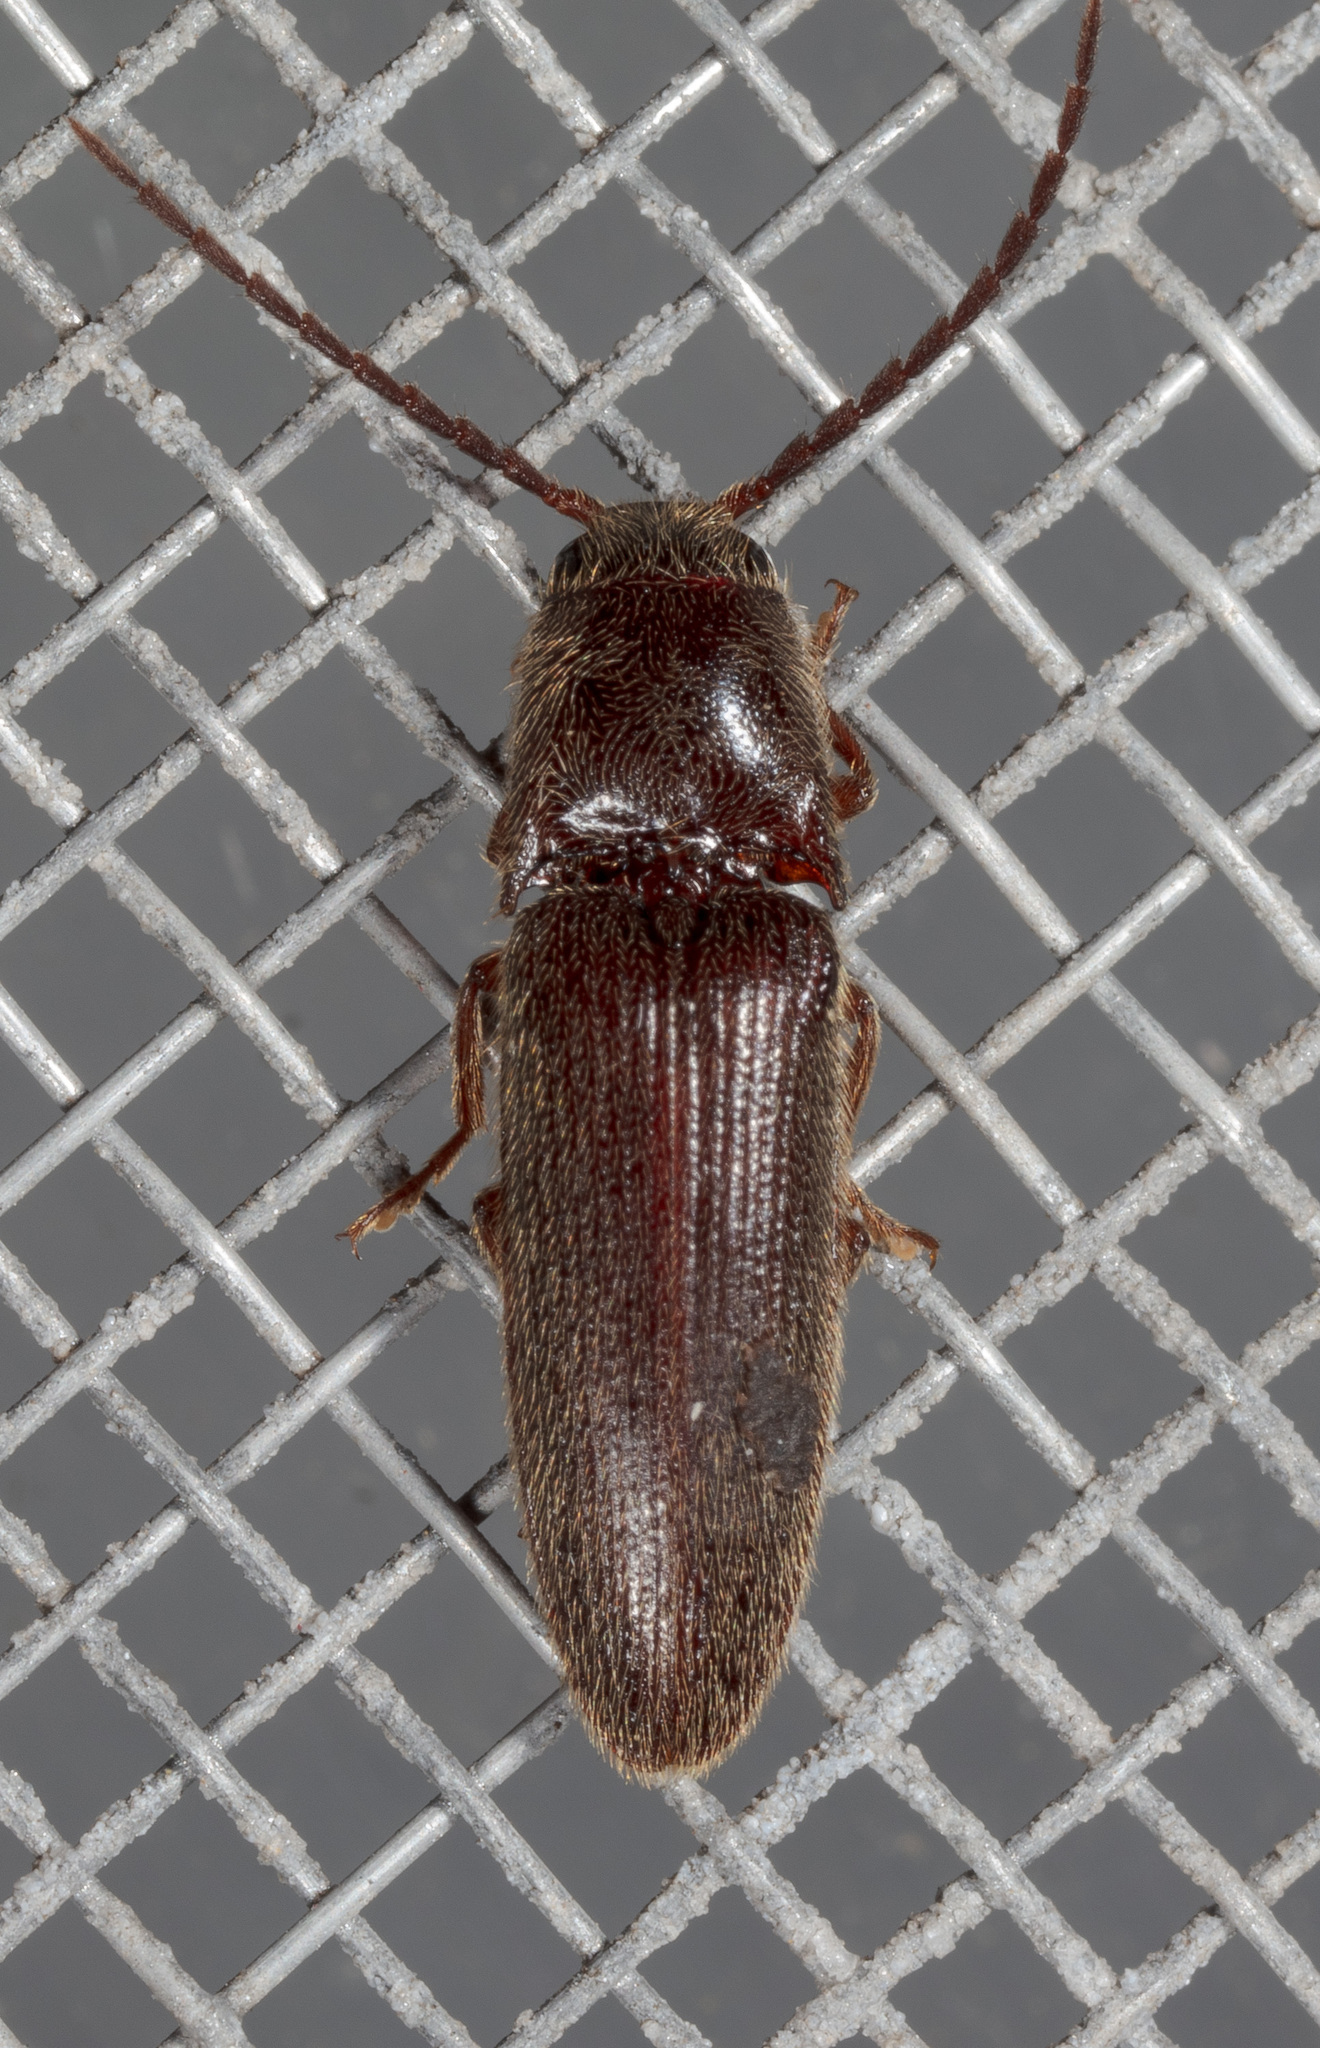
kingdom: Animalia
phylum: Arthropoda
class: Insecta
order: Coleoptera
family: Elateridae
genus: Dipropus
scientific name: Dipropus
